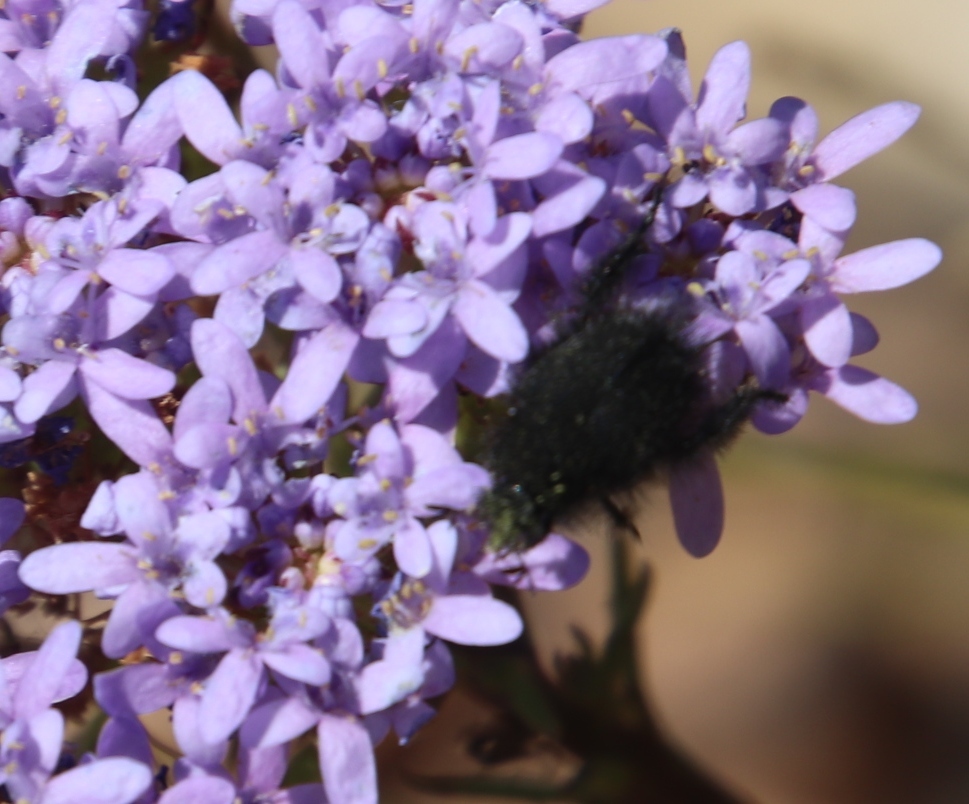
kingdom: Plantae
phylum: Tracheophyta
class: Magnoliopsida
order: Lamiales
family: Scrophulariaceae
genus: Pseudoselago
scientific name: Pseudoselago spuria
